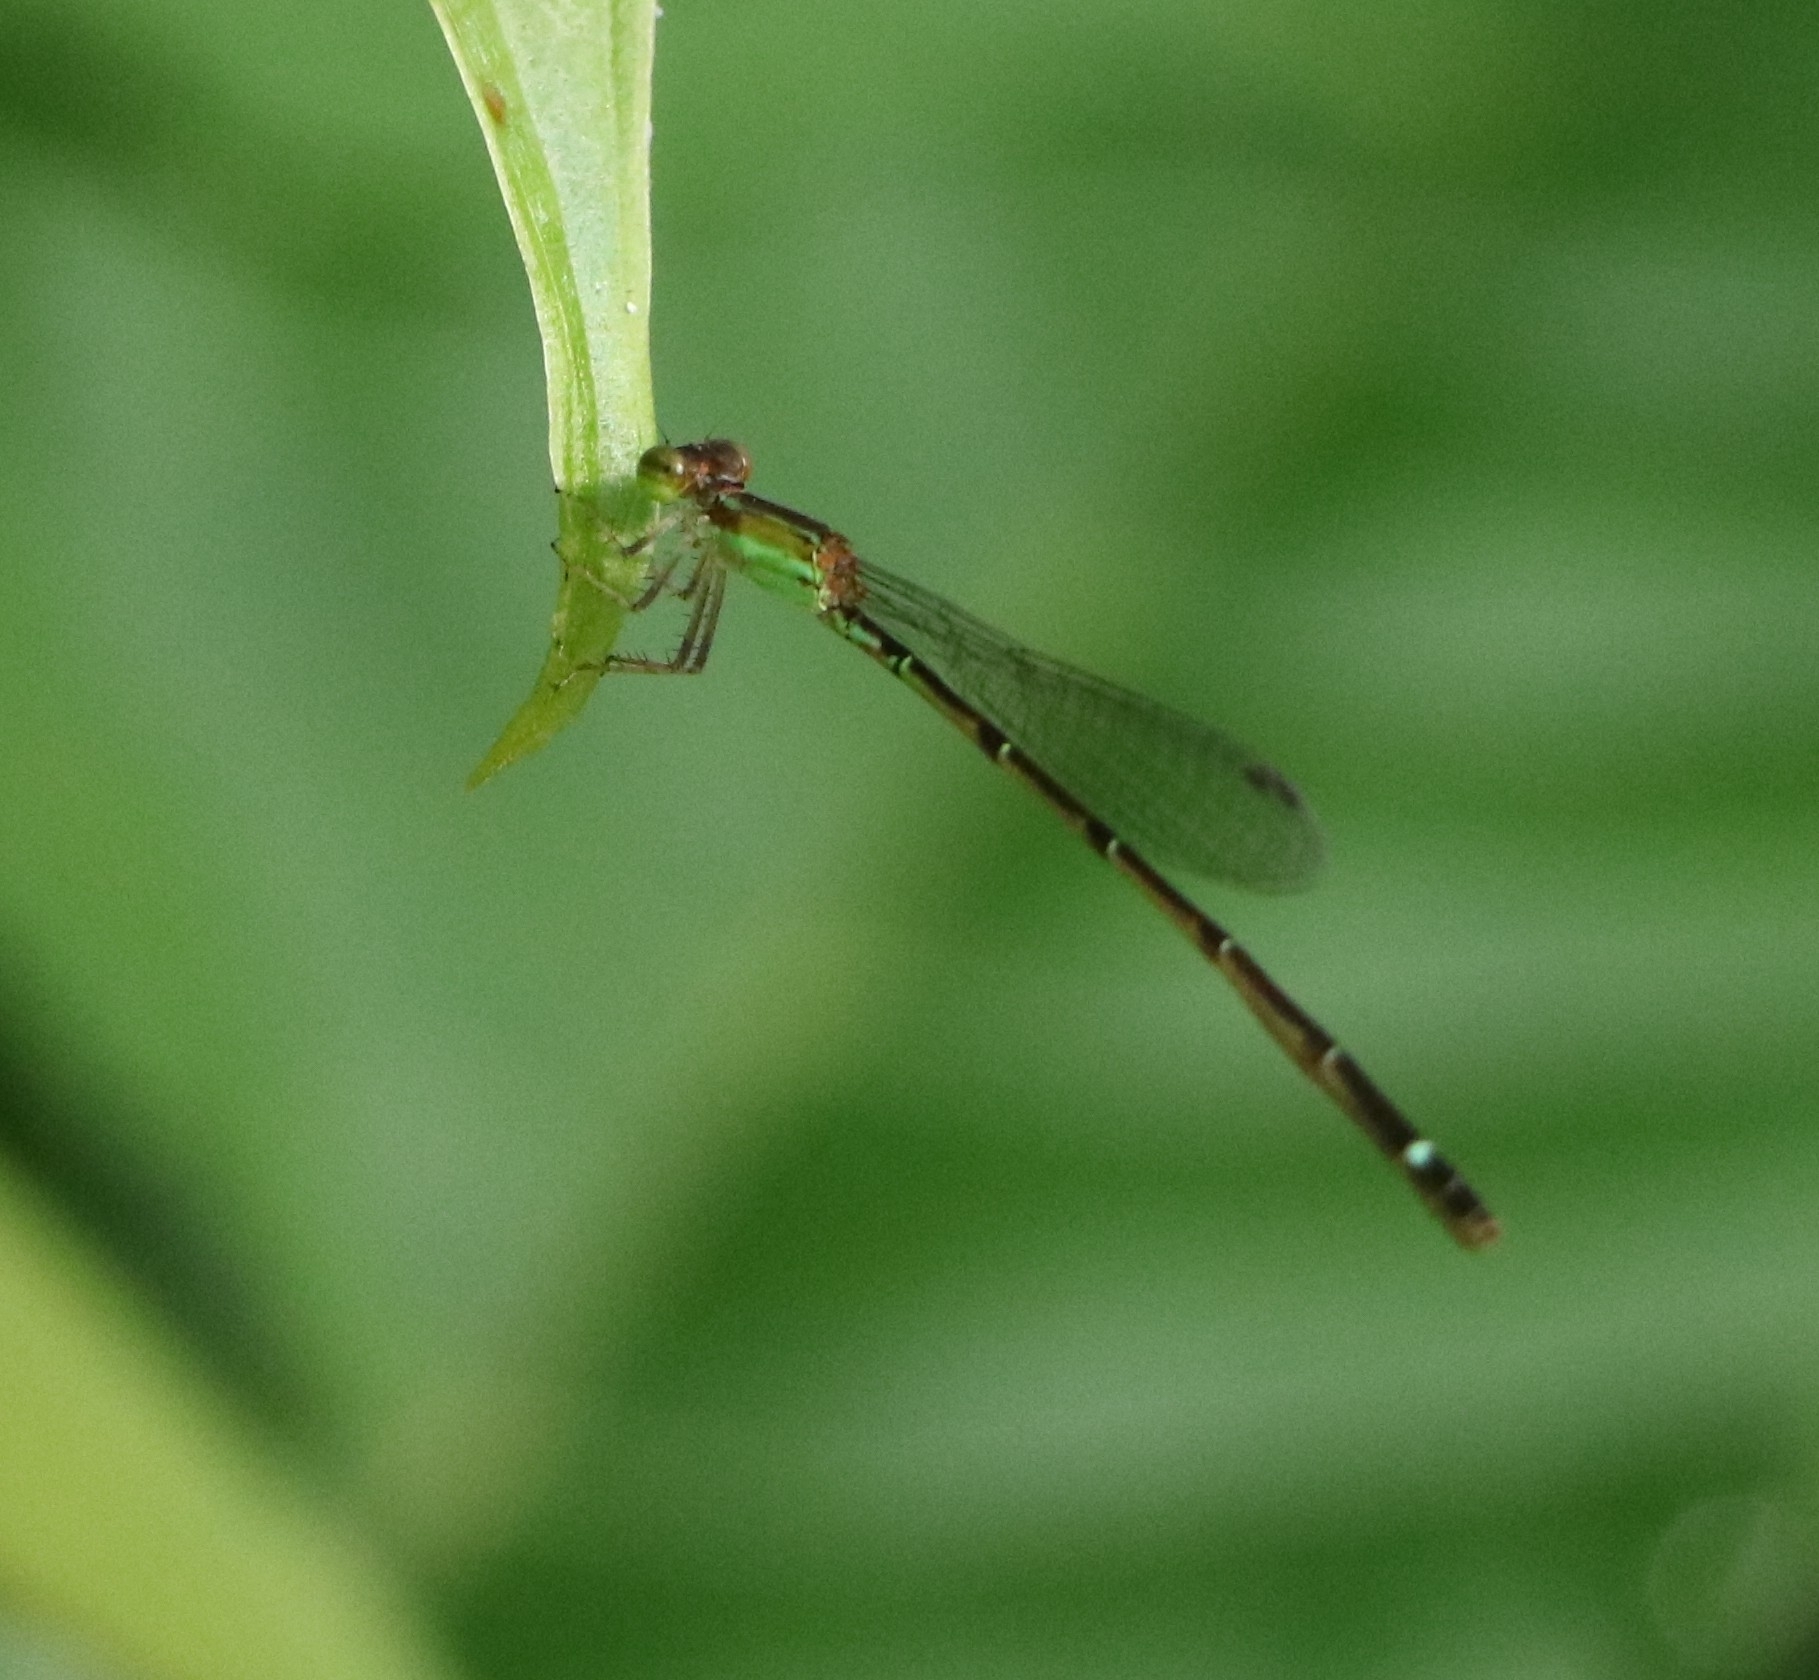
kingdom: Animalia
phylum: Arthropoda
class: Insecta
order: Odonata
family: Coenagrionidae
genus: Mortonagrion
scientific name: Mortonagrion varralli
